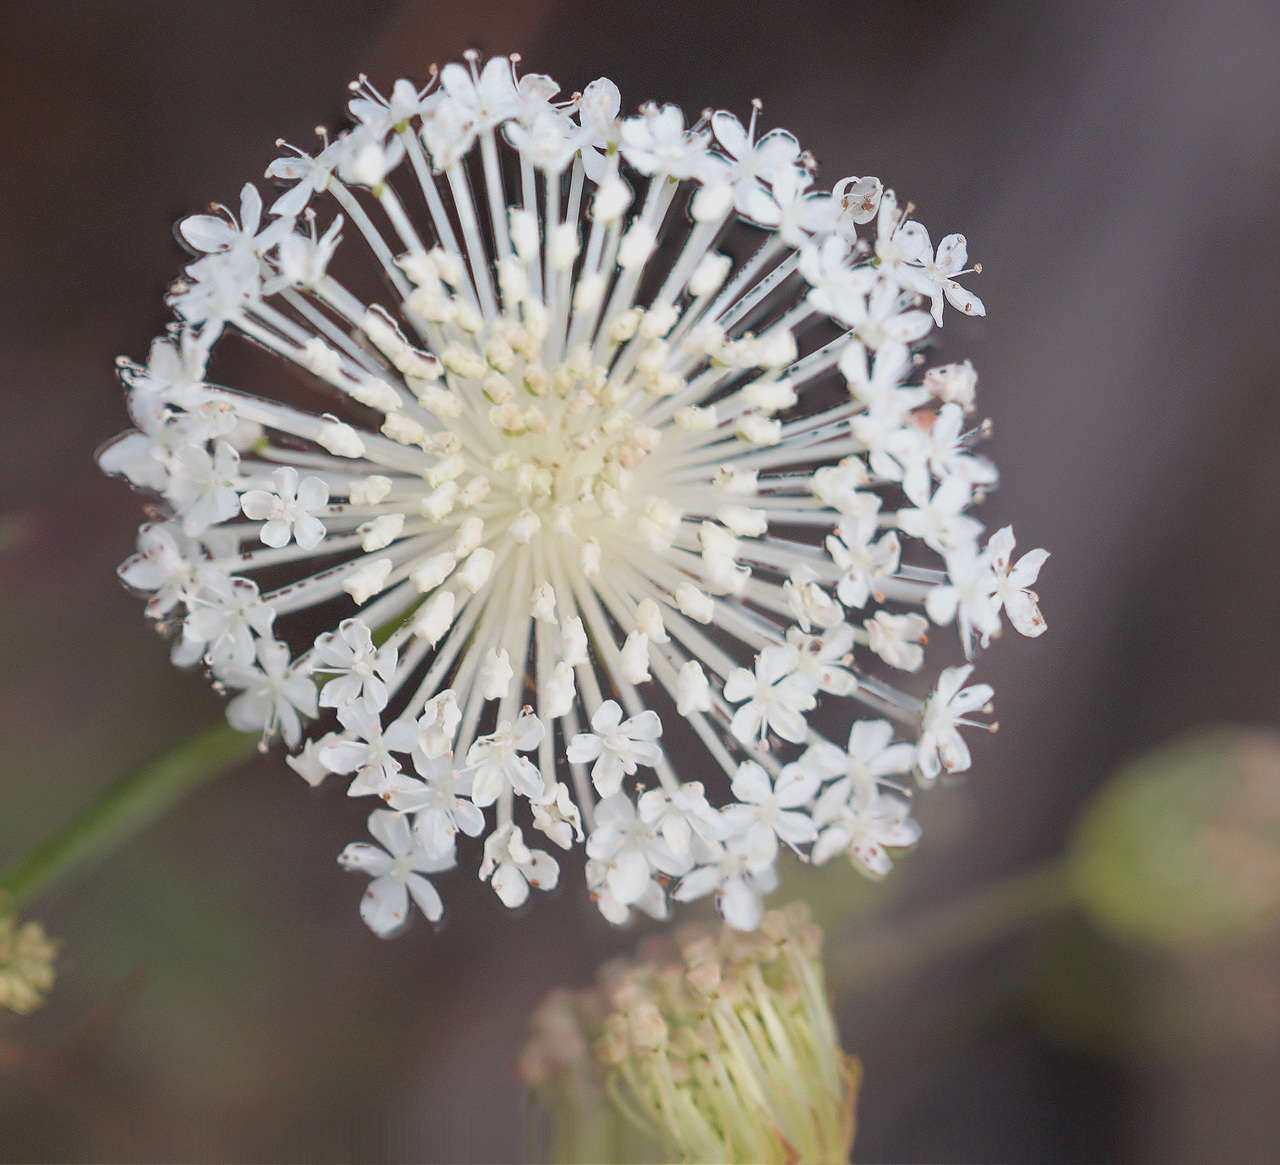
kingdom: Plantae
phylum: Tracheophyta
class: Magnoliopsida
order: Apiales
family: Araliaceae
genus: Trachymene
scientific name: Trachymene composita
